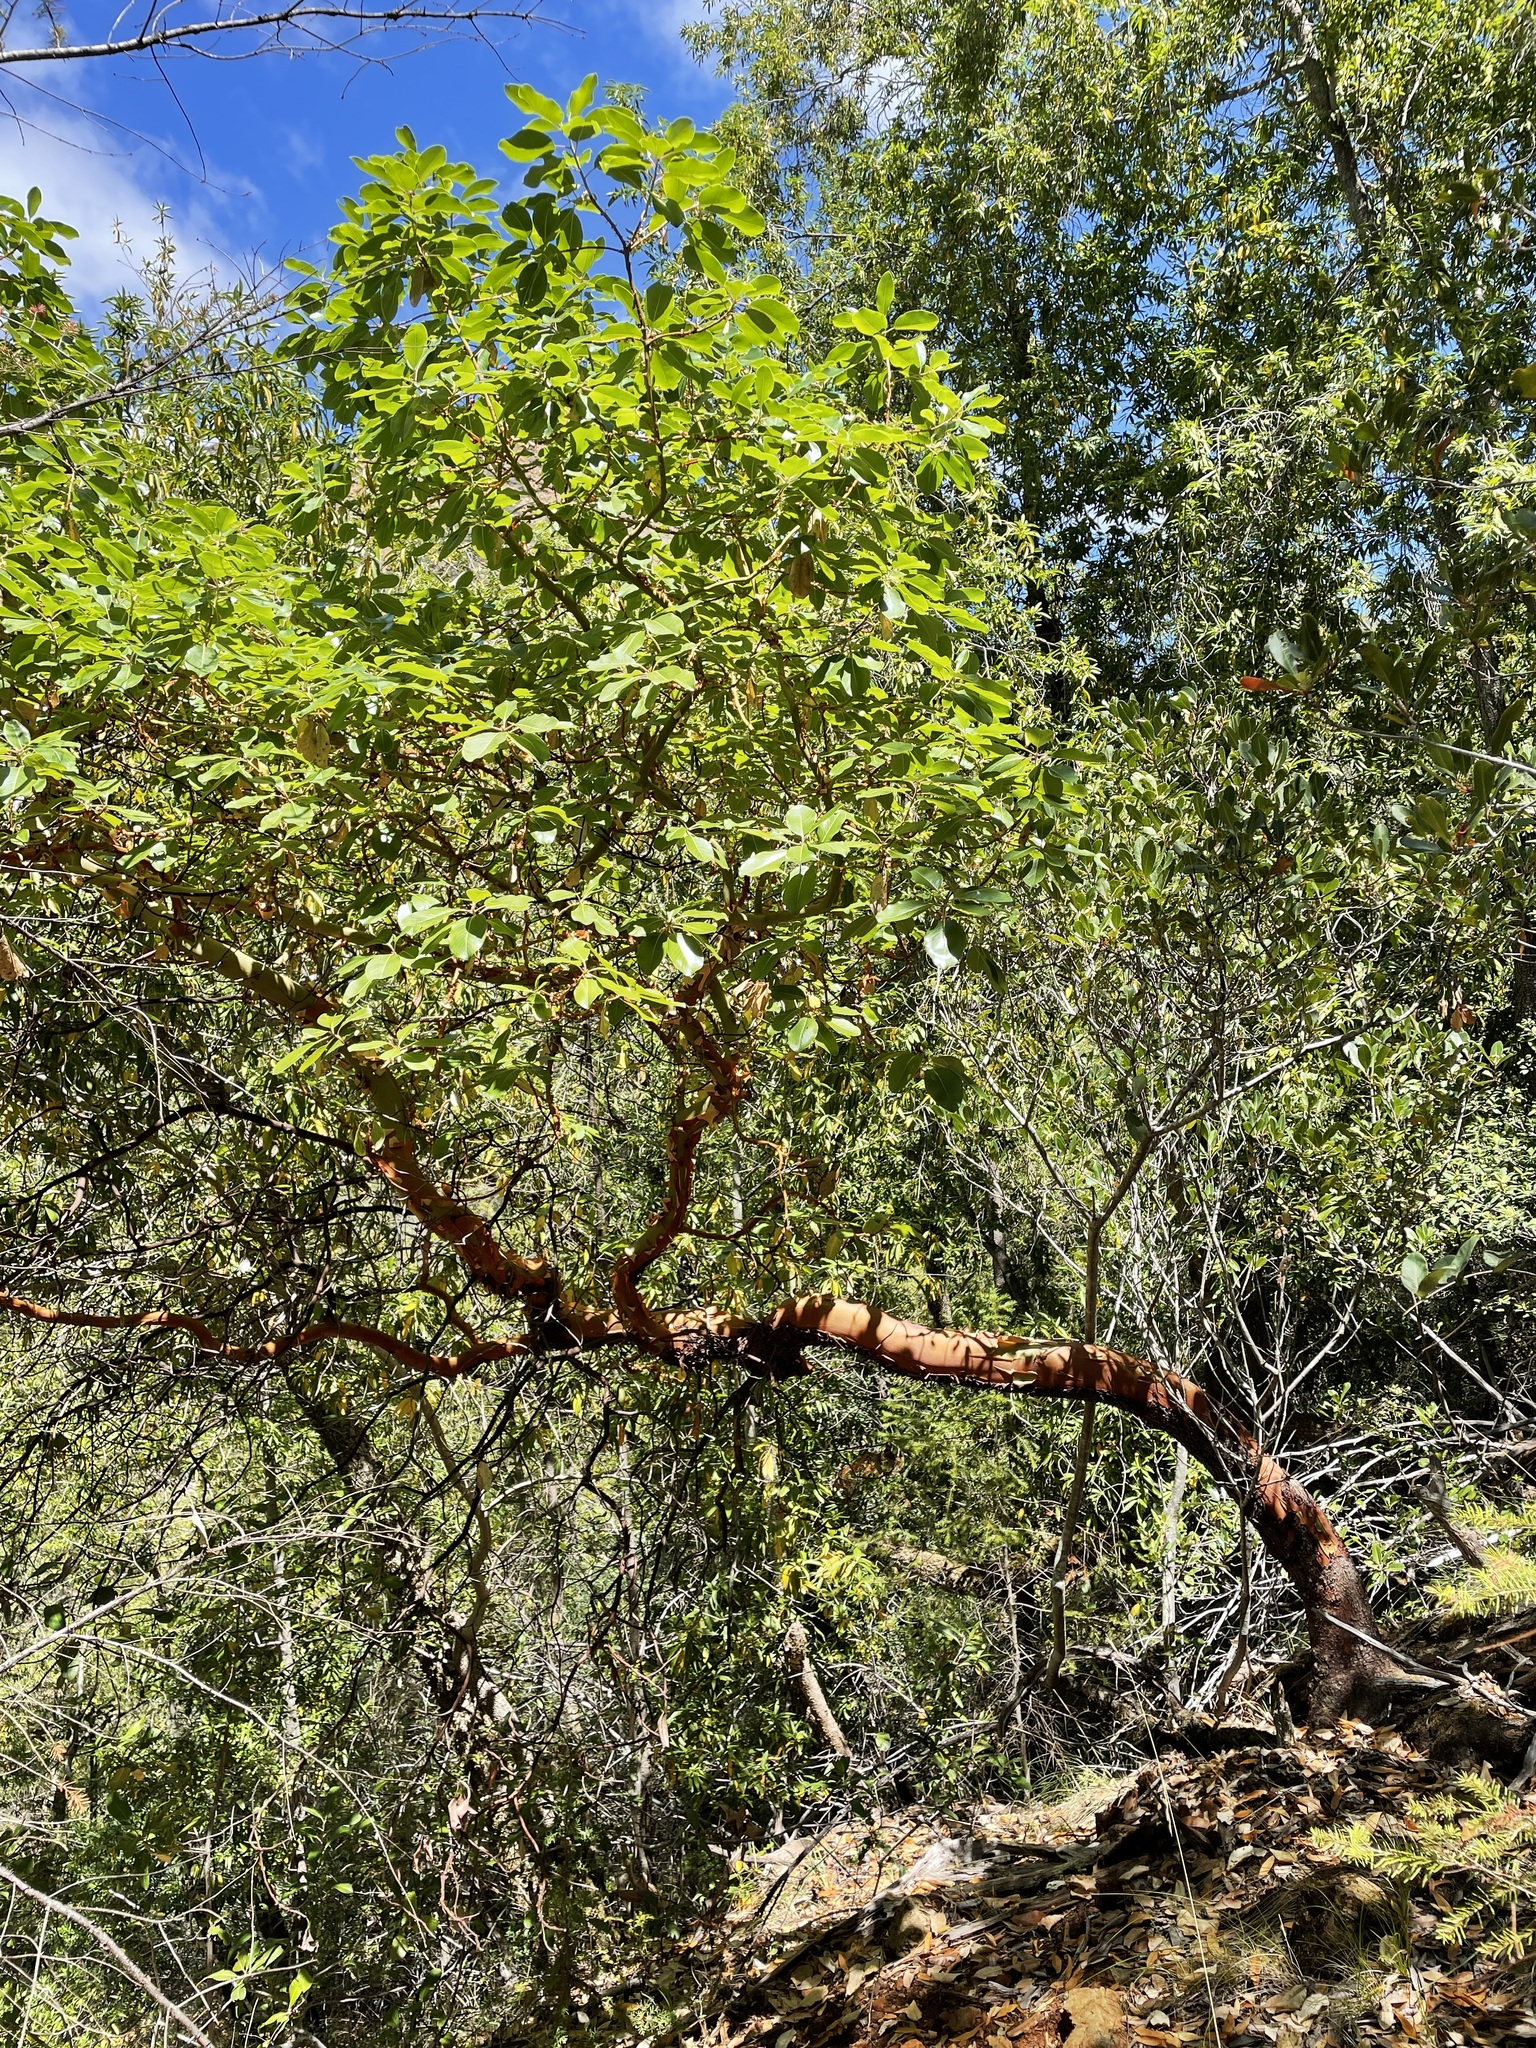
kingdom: Plantae
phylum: Tracheophyta
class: Magnoliopsida
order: Ericales
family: Ericaceae
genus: Arbutus
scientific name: Arbutus menziesii
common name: Pacific madrone
